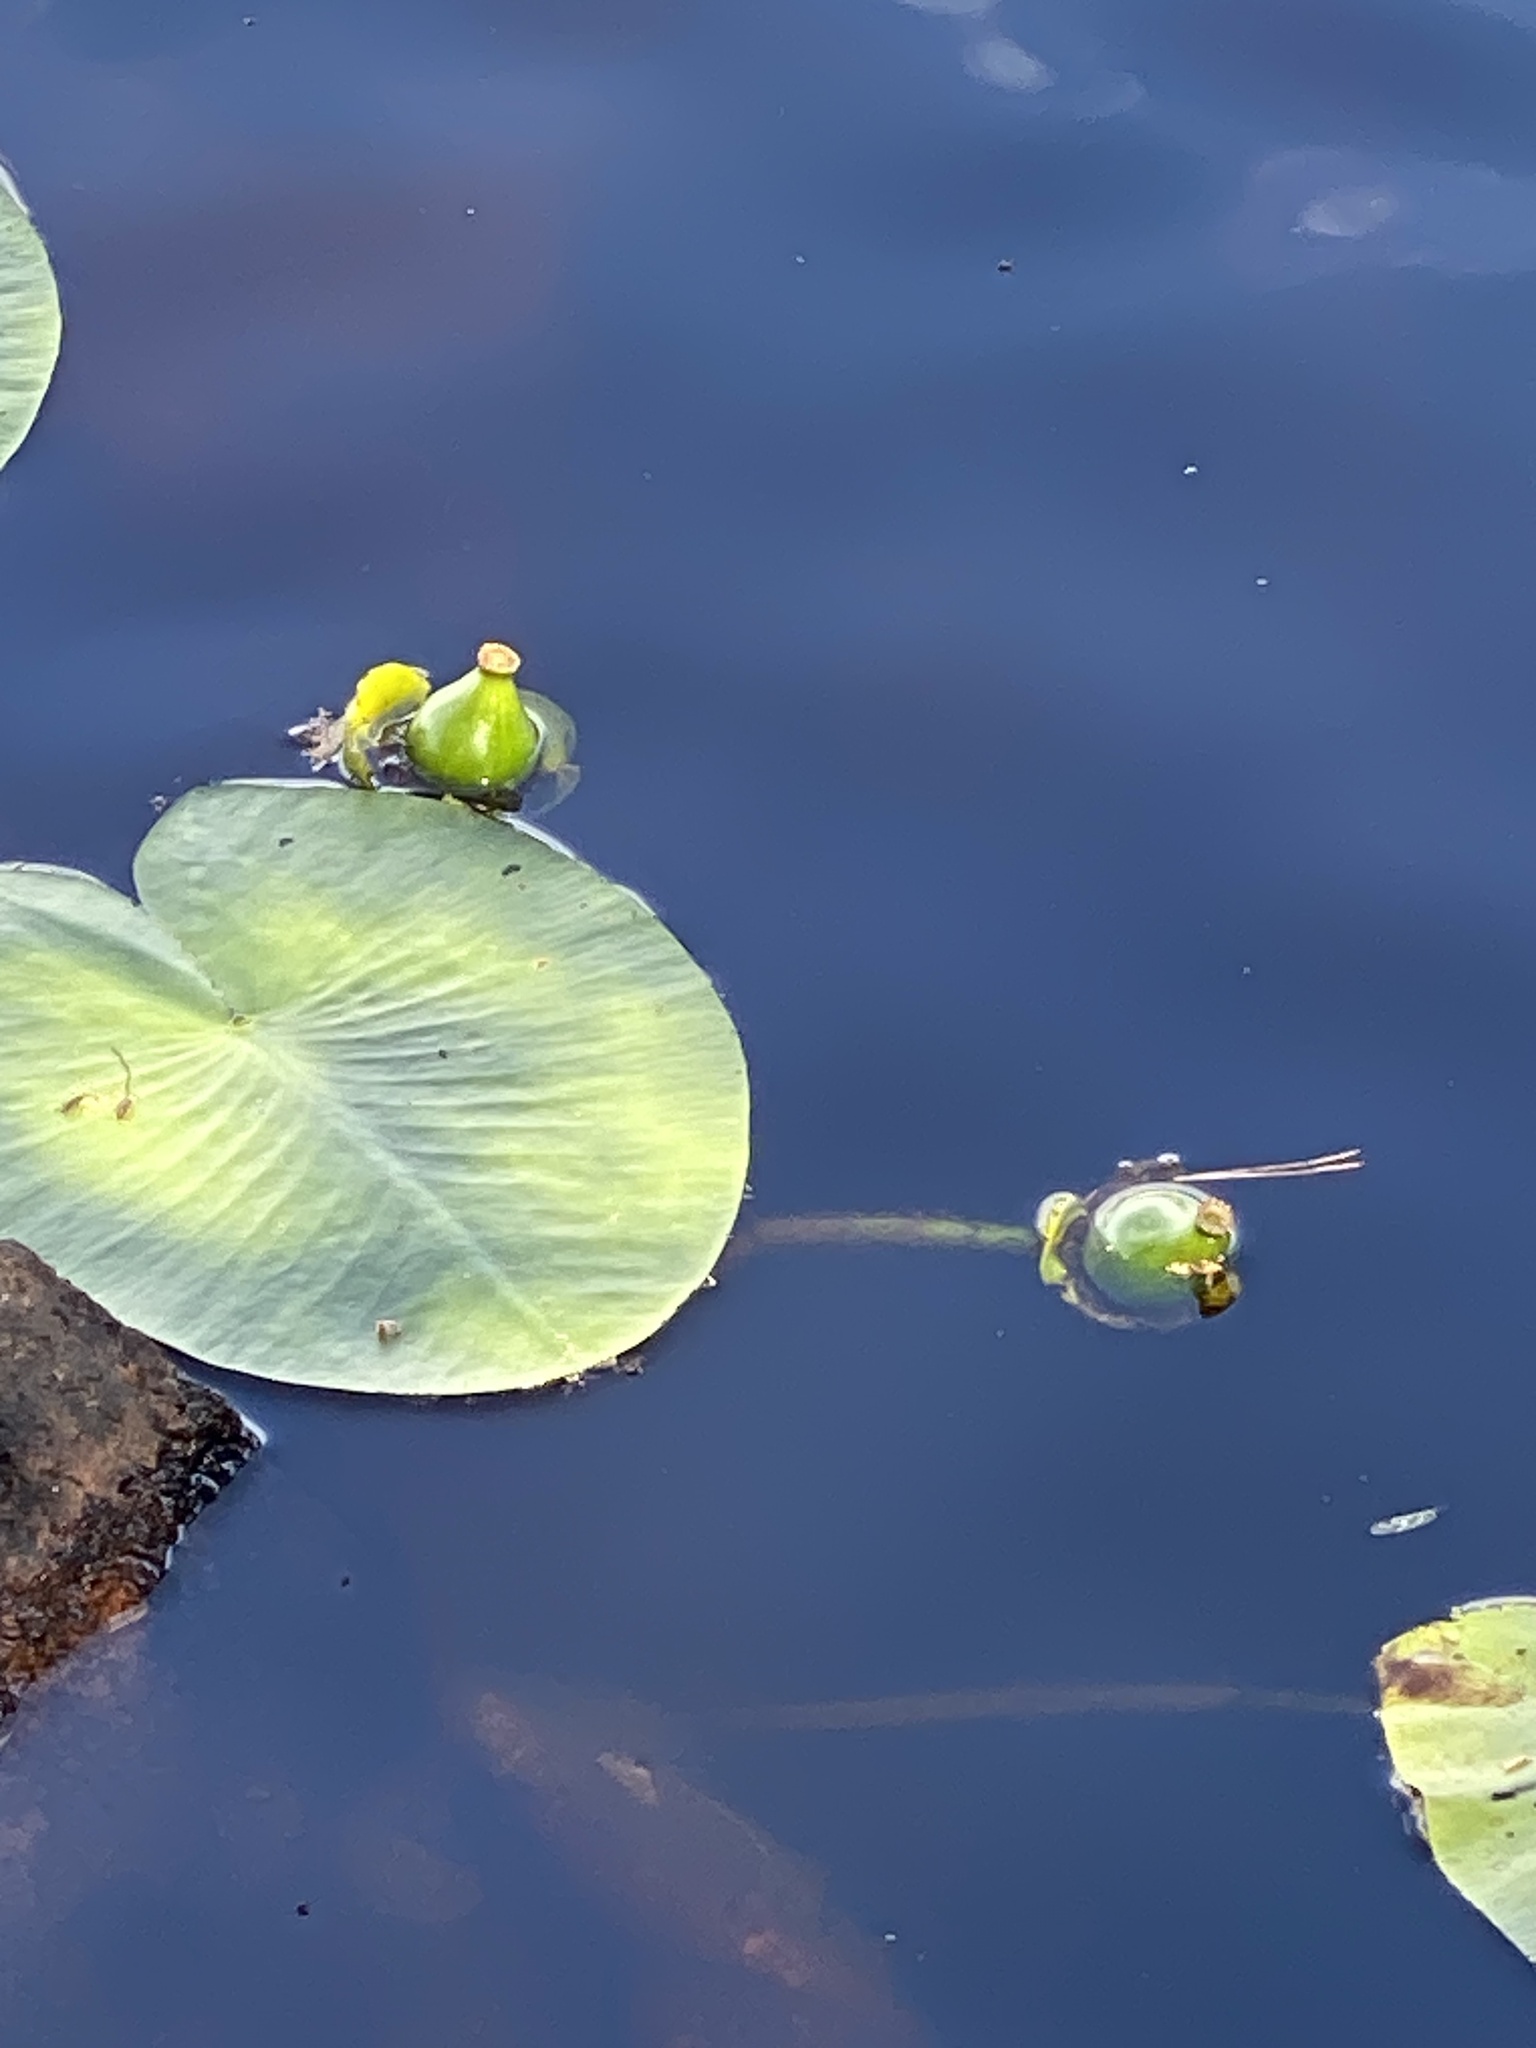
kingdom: Plantae
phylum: Tracheophyta
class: Magnoliopsida
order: Nymphaeales
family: Nymphaeaceae
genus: Nuphar
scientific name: Nuphar lutea
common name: Yellow water-lily
